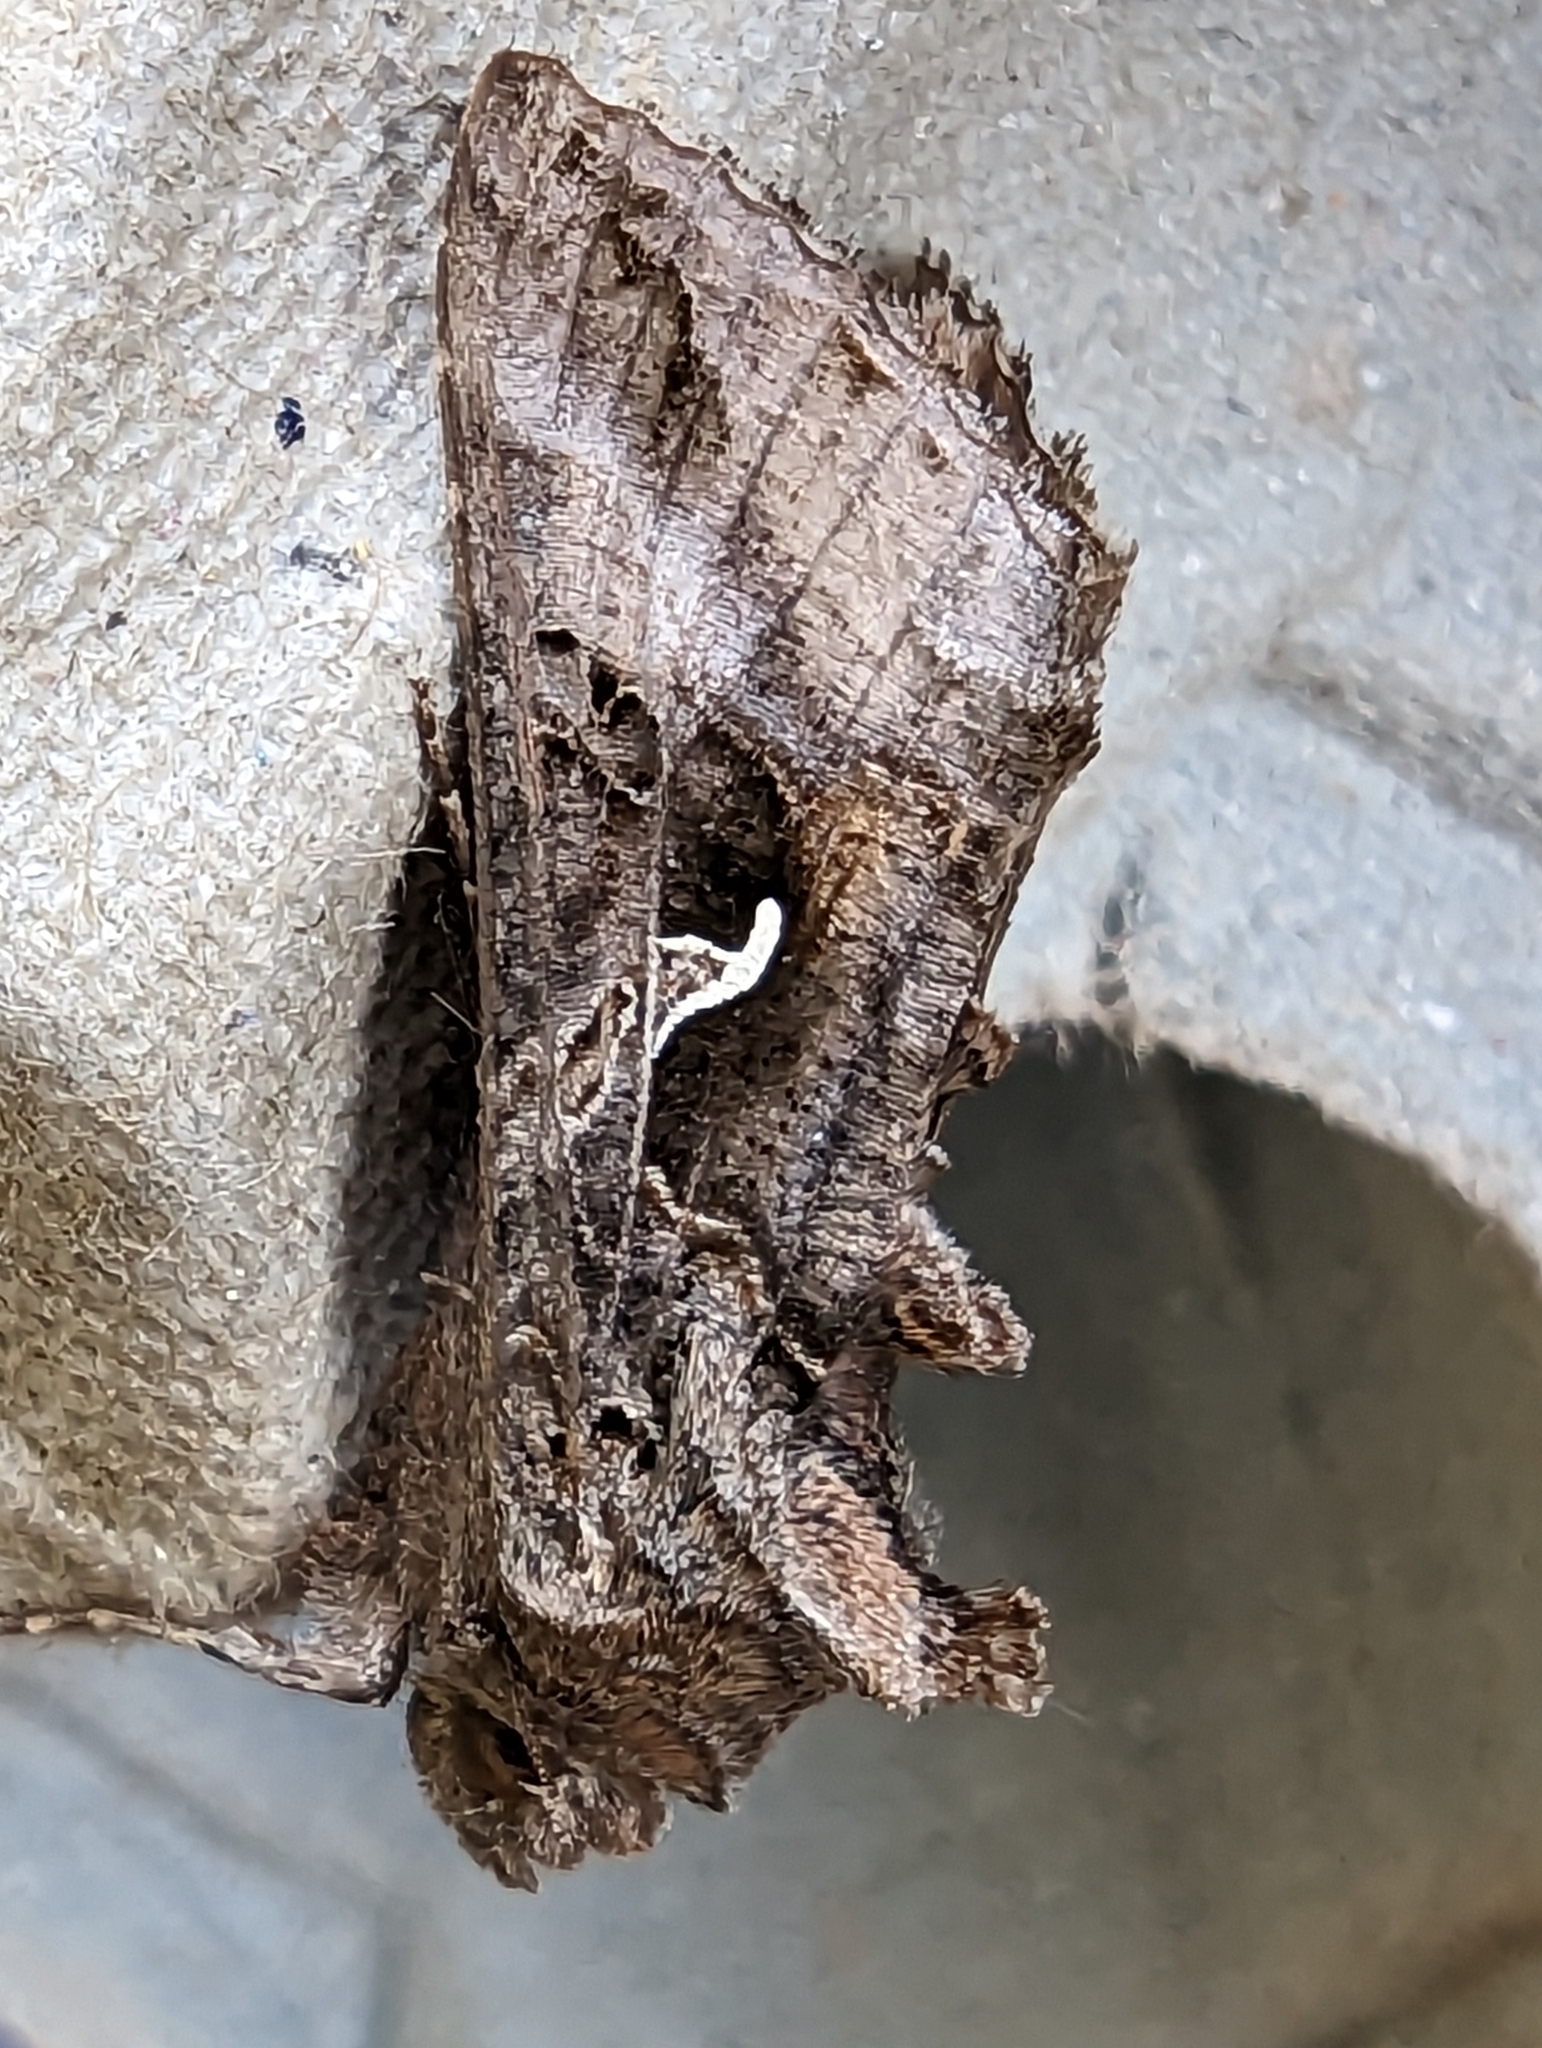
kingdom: Animalia
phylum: Arthropoda
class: Insecta
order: Lepidoptera
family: Noctuidae
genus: Autographa
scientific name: Autographa gamma
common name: Silver y
